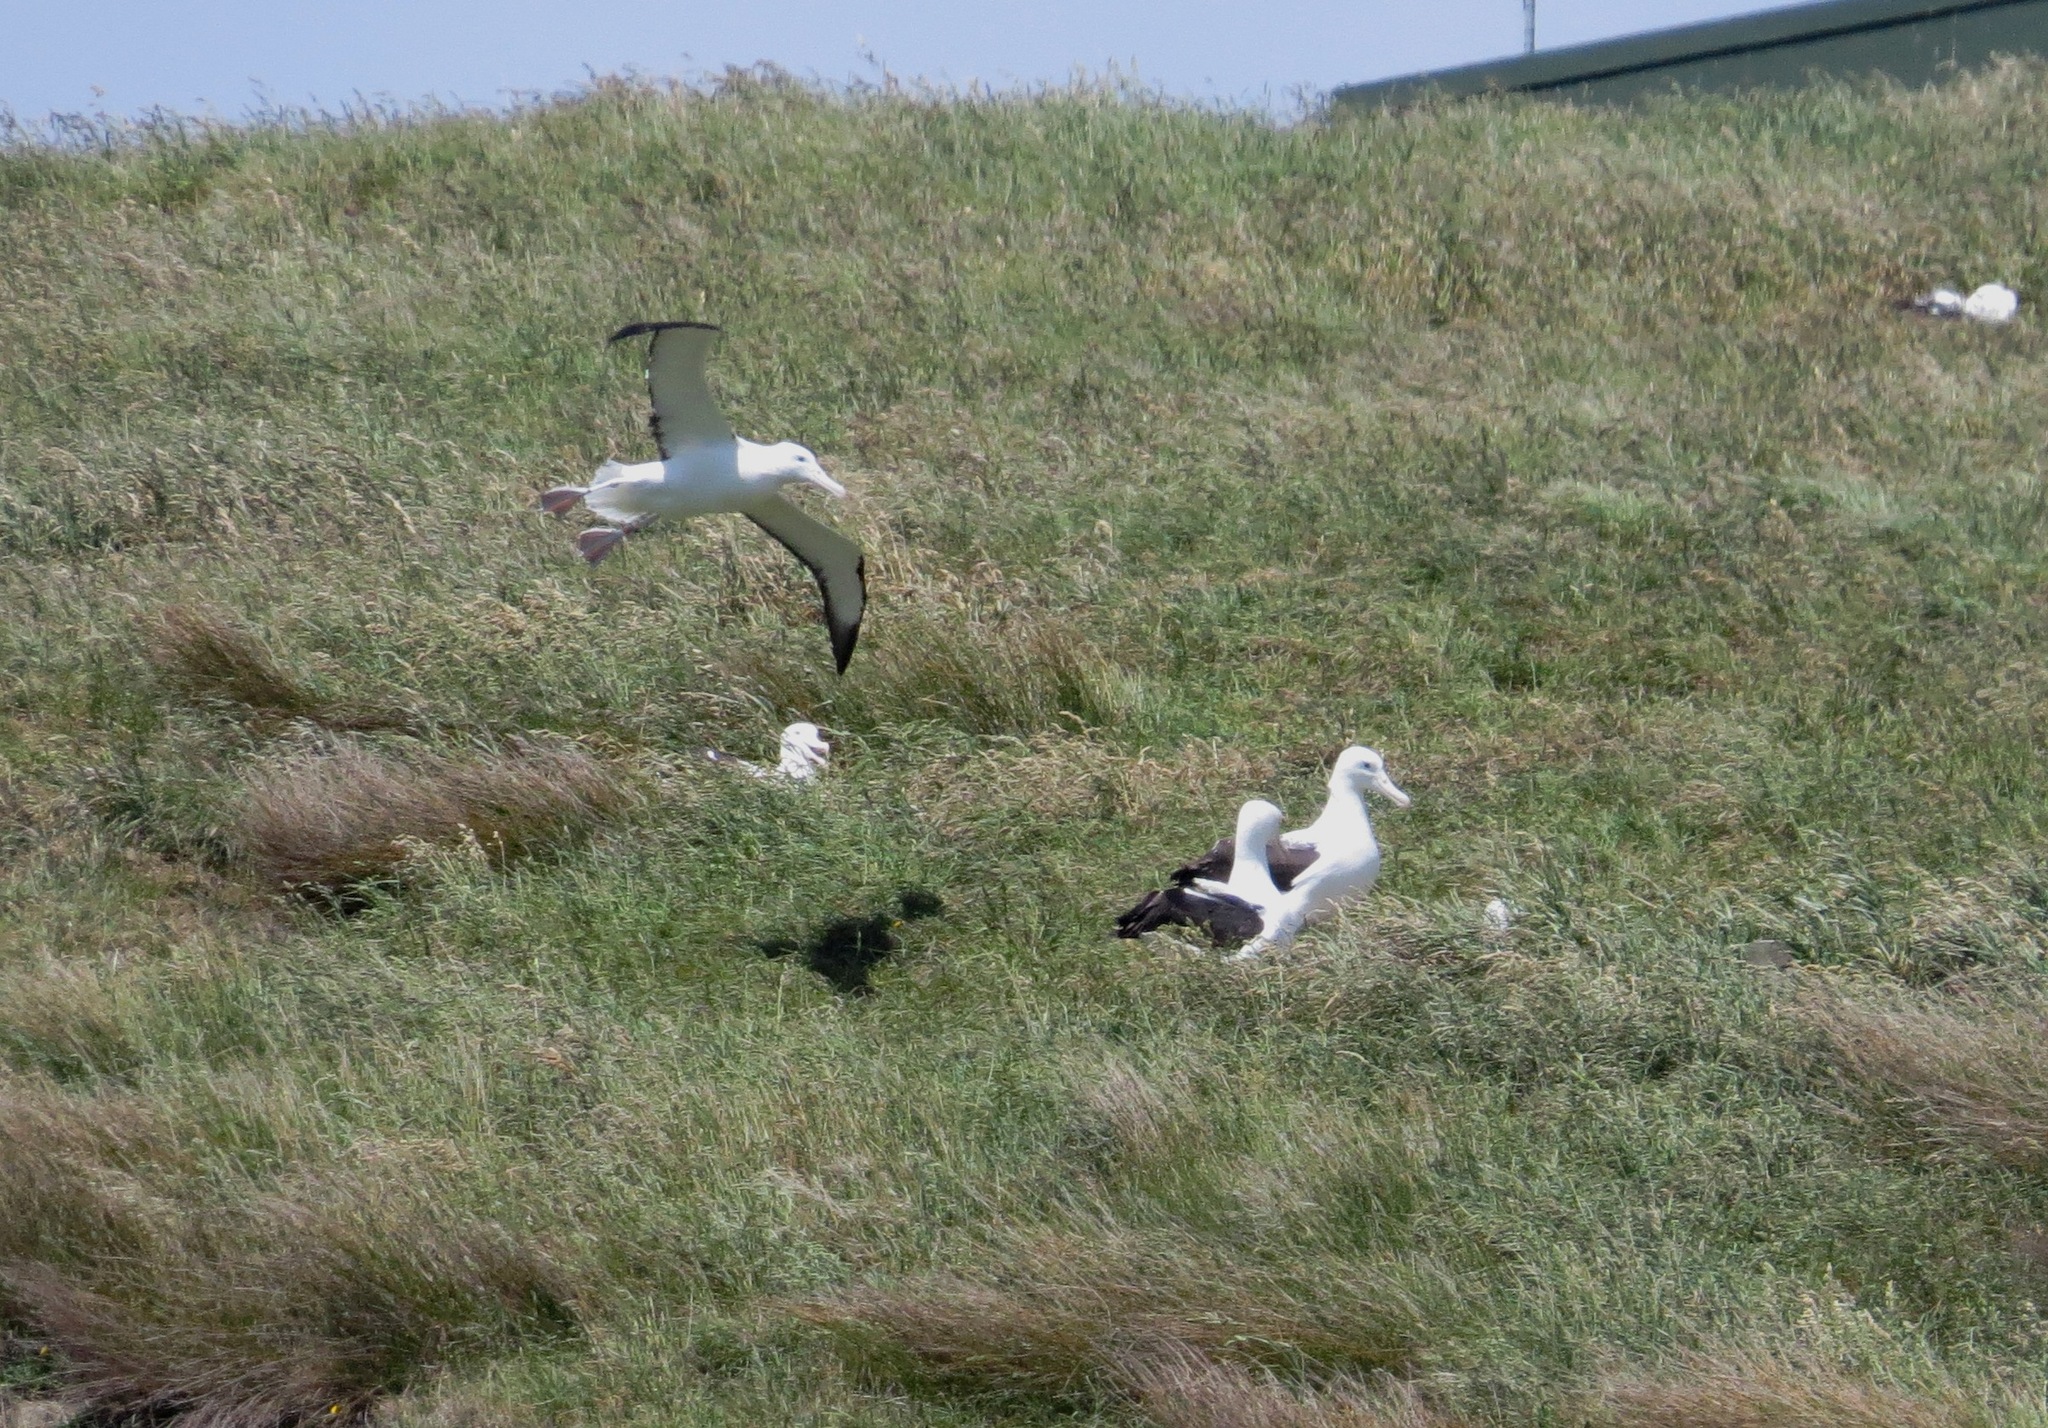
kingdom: Animalia
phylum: Chordata
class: Aves
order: Procellariiformes
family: Diomedeidae
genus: Diomedea
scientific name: Diomedea sanfordi
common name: Northern royal albatross
